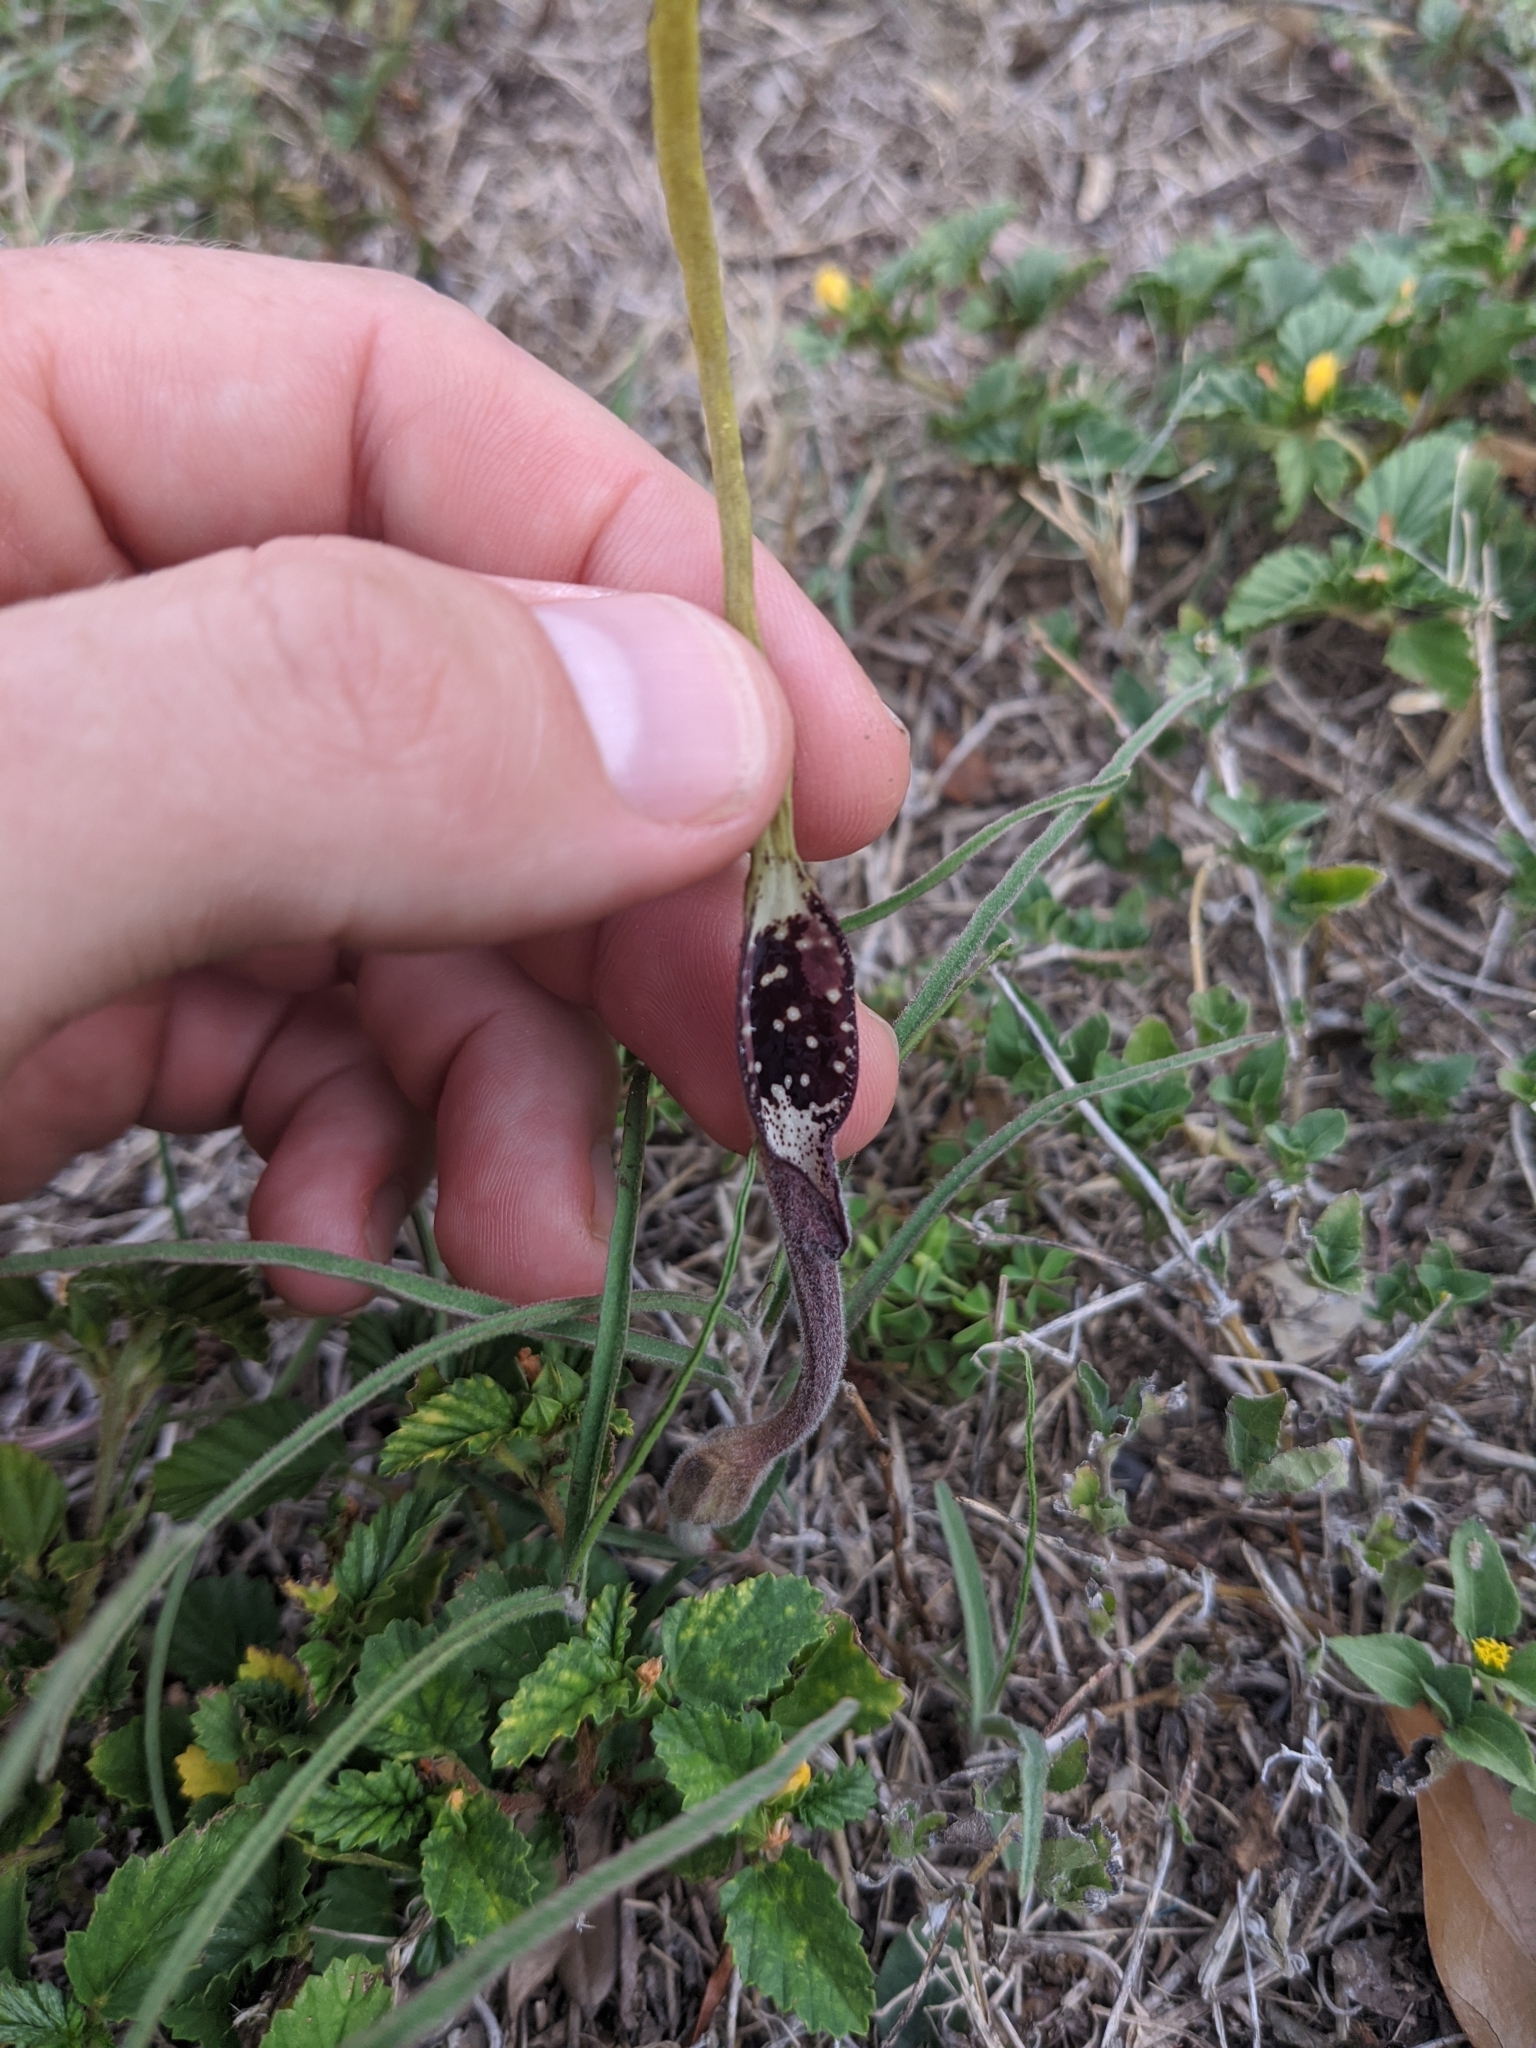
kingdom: Plantae
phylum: Tracheophyta
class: Magnoliopsida
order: Piperales
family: Aristolochiaceae
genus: Aristolochia
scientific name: Aristolochia erecta
